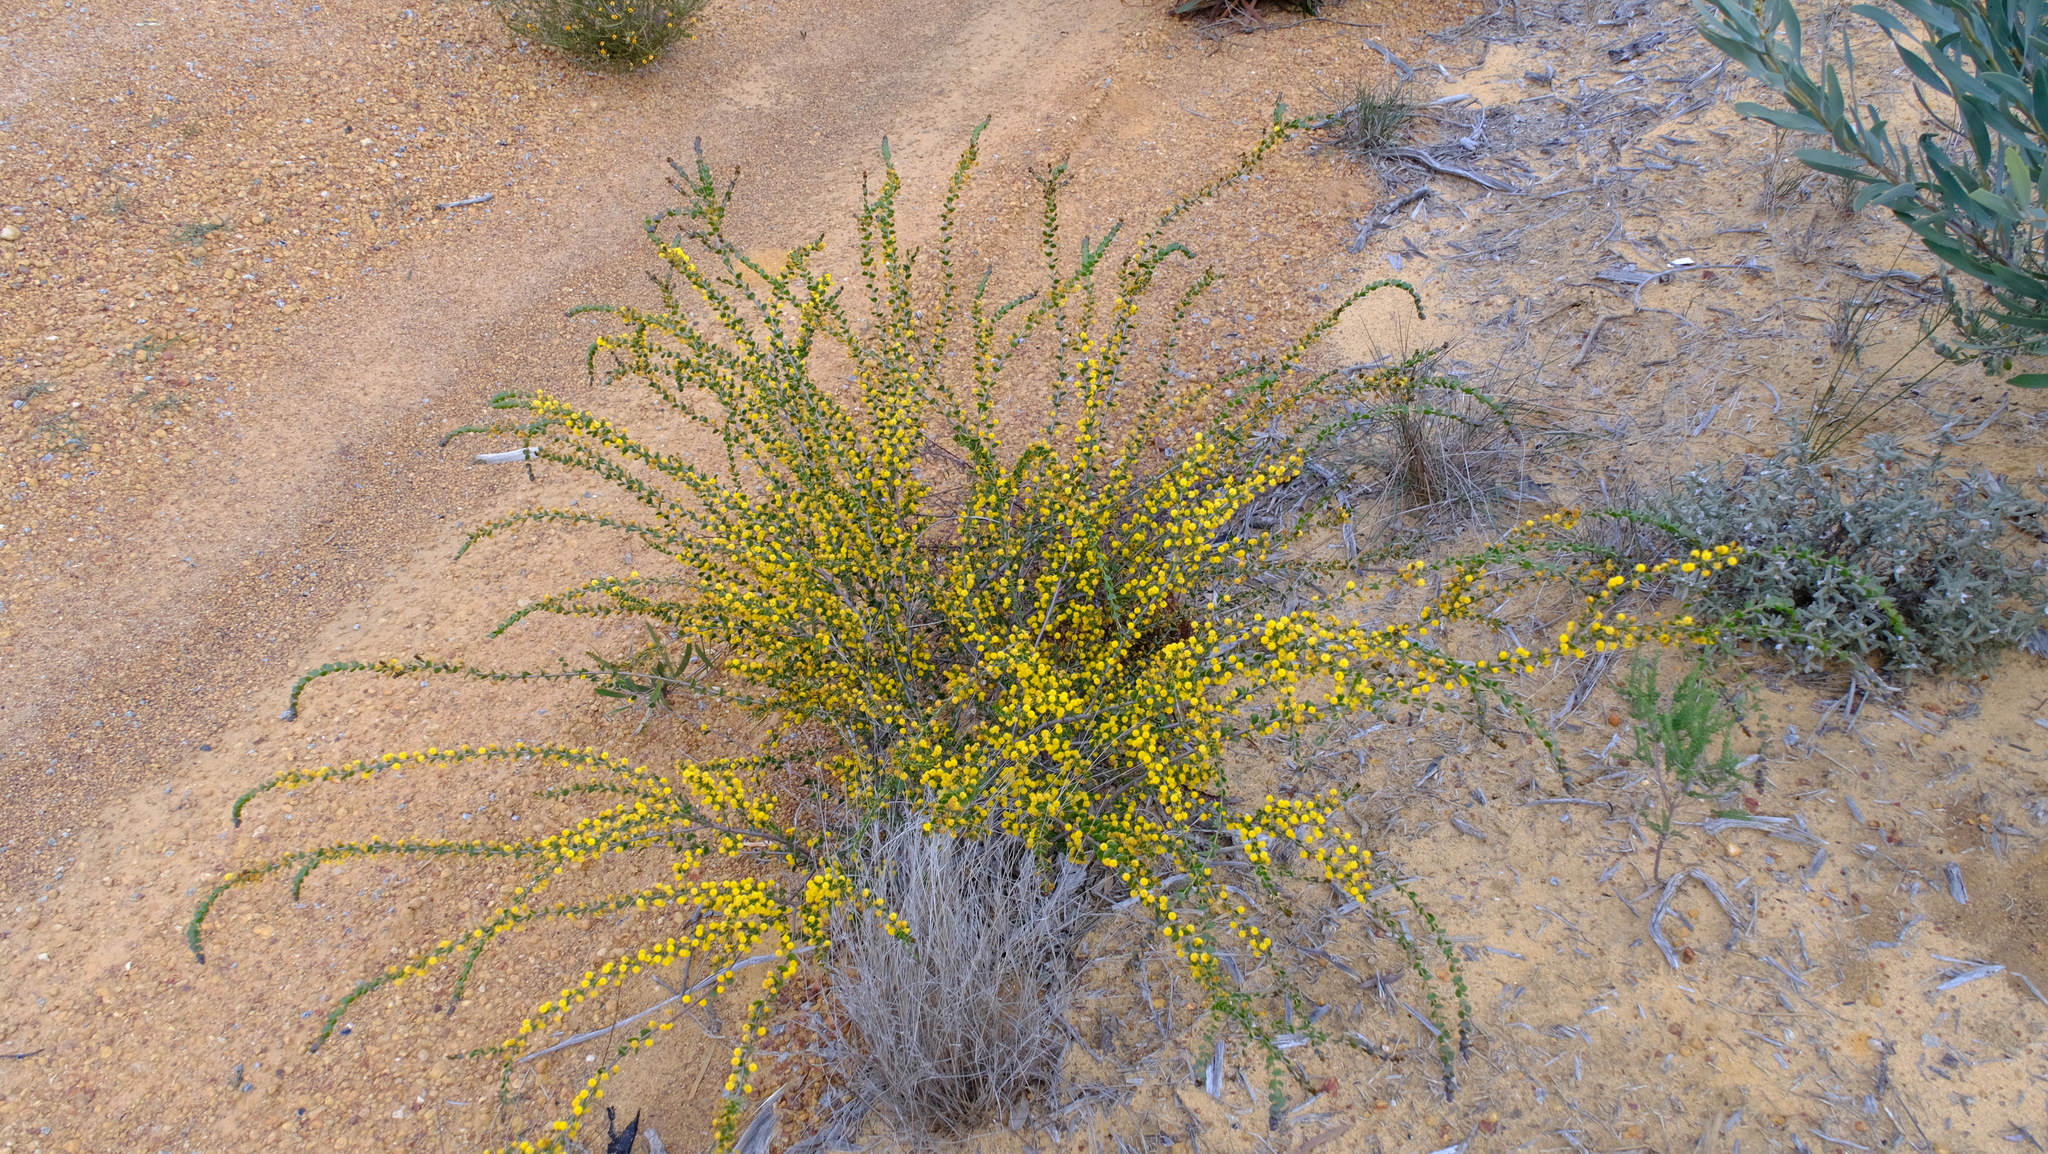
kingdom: Plantae
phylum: Tracheophyta
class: Magnoliopsida
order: Fabales
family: Fabaceae
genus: Acacia
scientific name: Acacia leptospermoides
